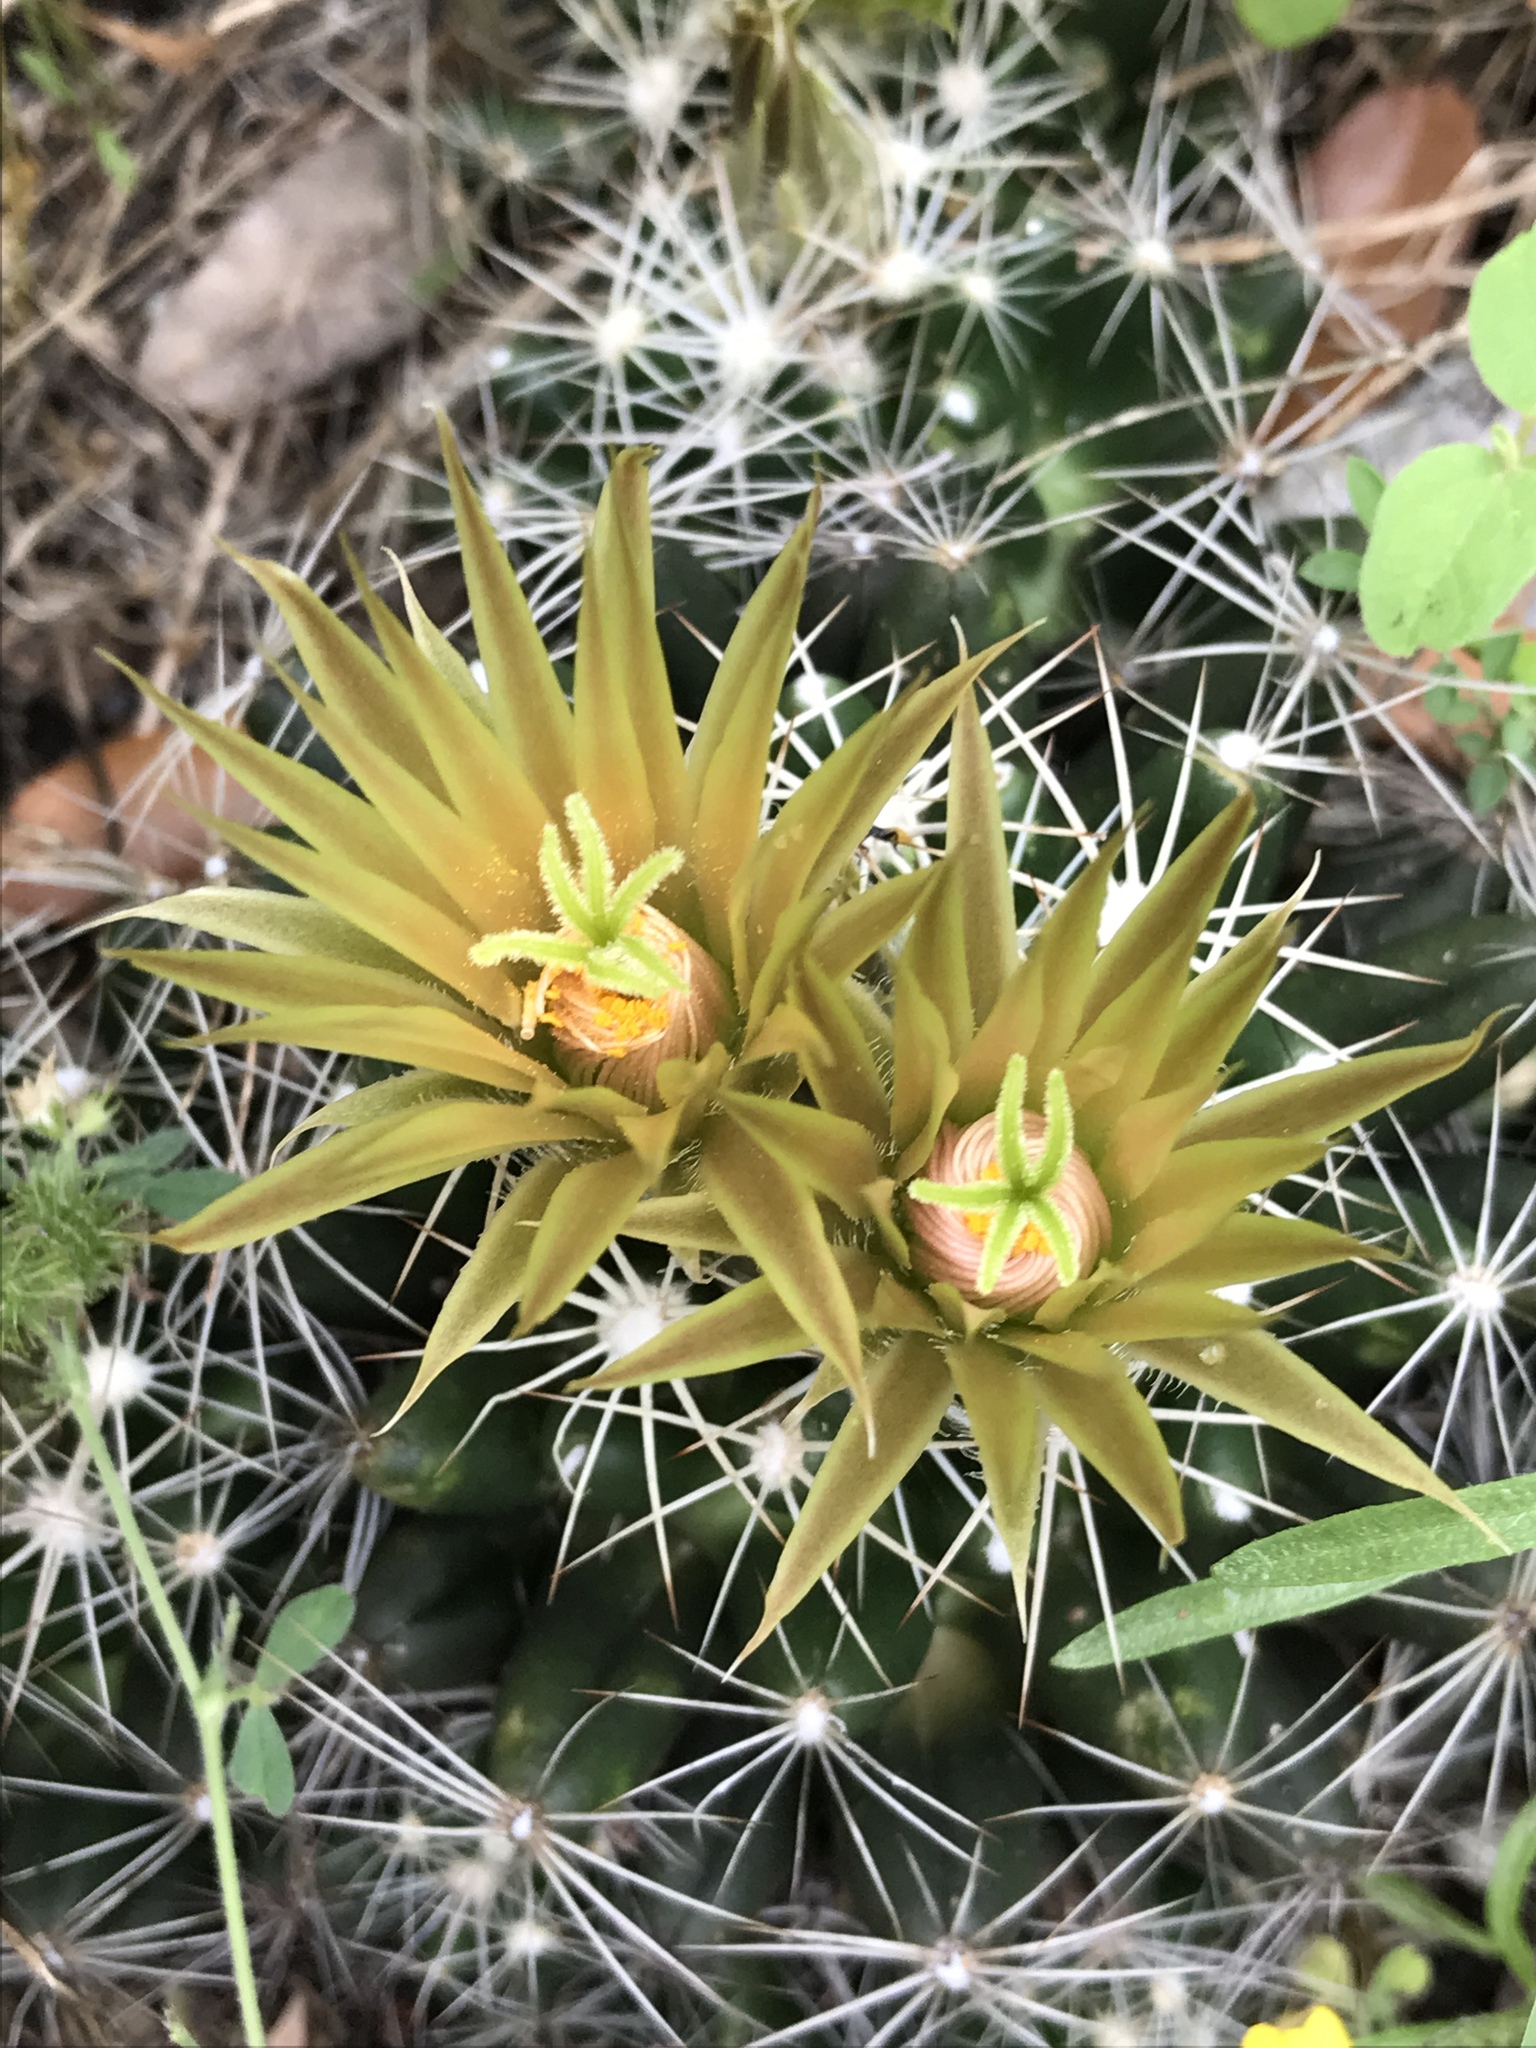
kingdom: Plantae
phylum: Tracheophyta
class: Magnoliopsida
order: Caryophyllales
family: Cactaceae
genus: Pelecyphora
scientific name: Pelecyphora missouriensis
